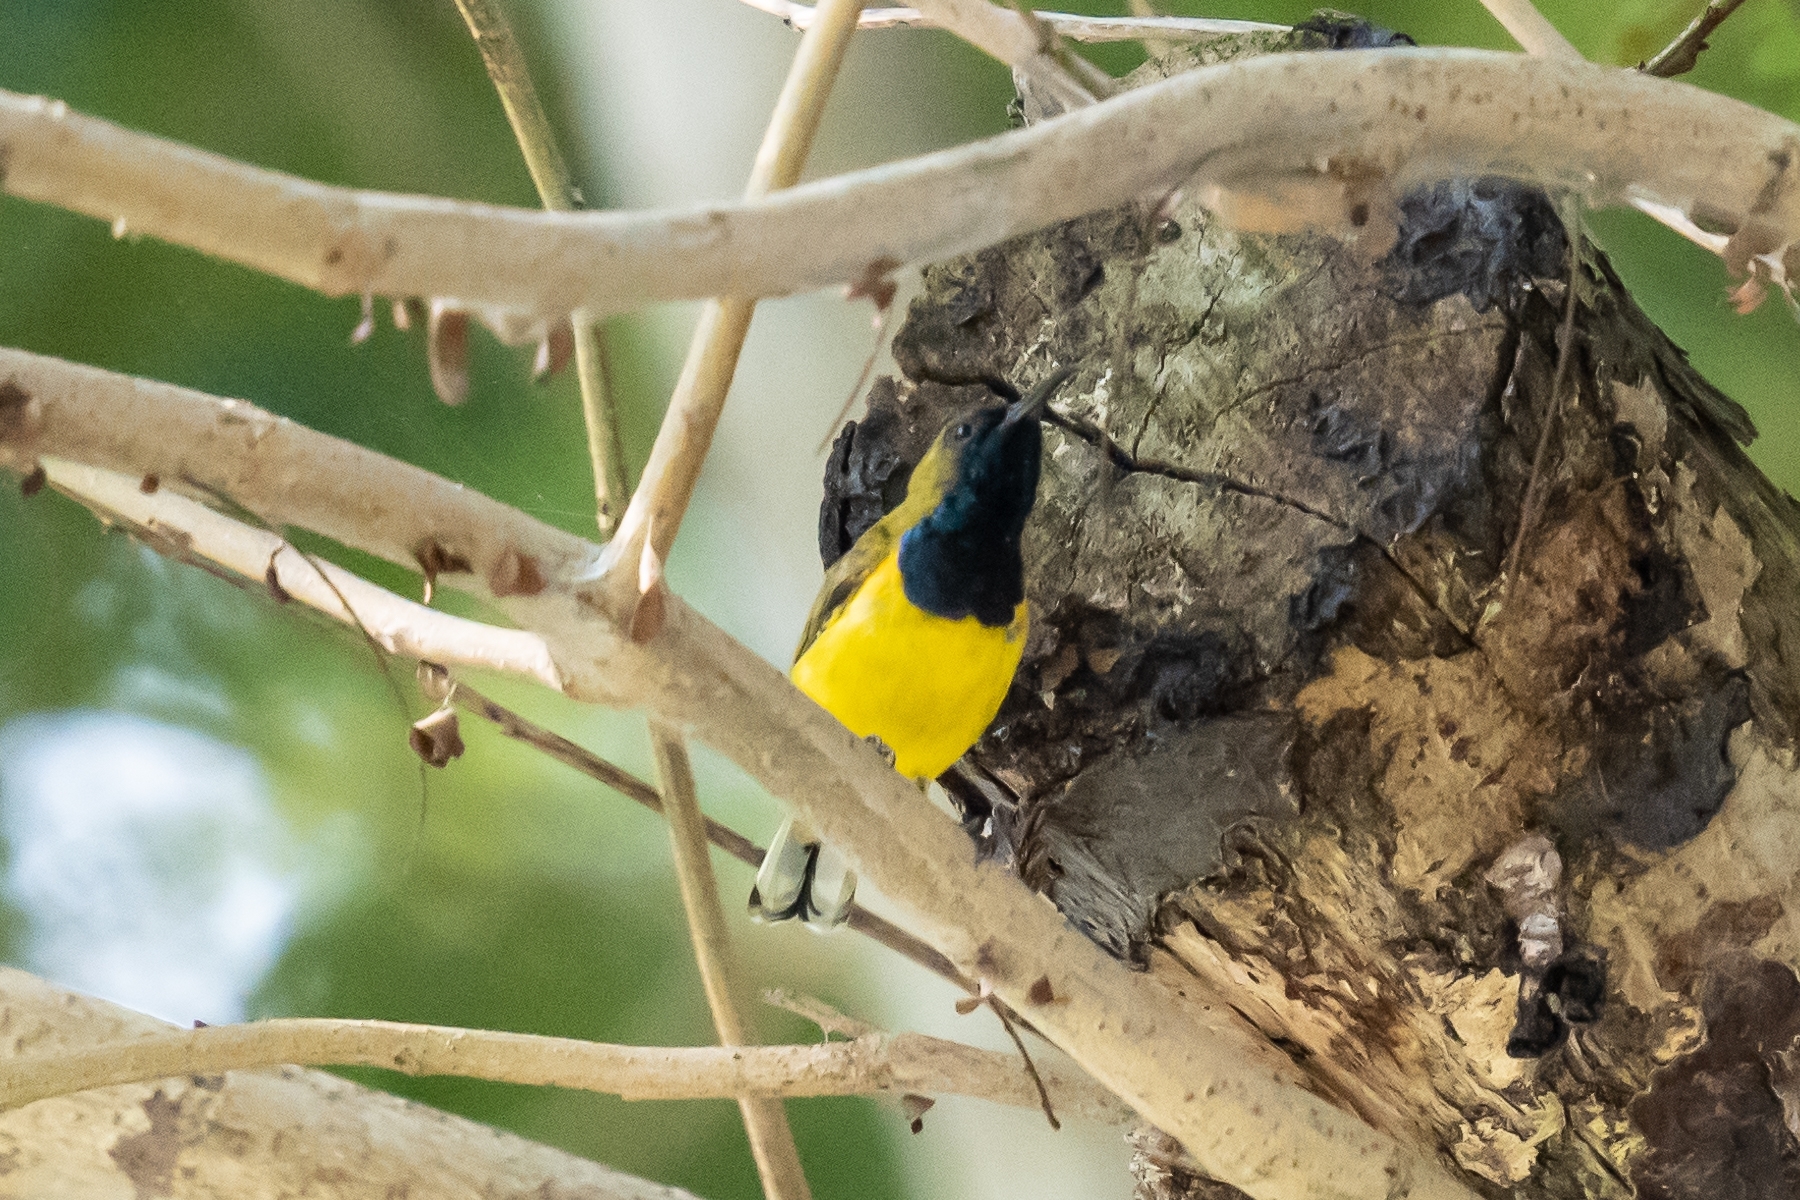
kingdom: Animalia
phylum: Chordata
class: Aves
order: Passeriformes
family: Nectariniidae
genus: Cinnyris
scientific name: Cinnyris
